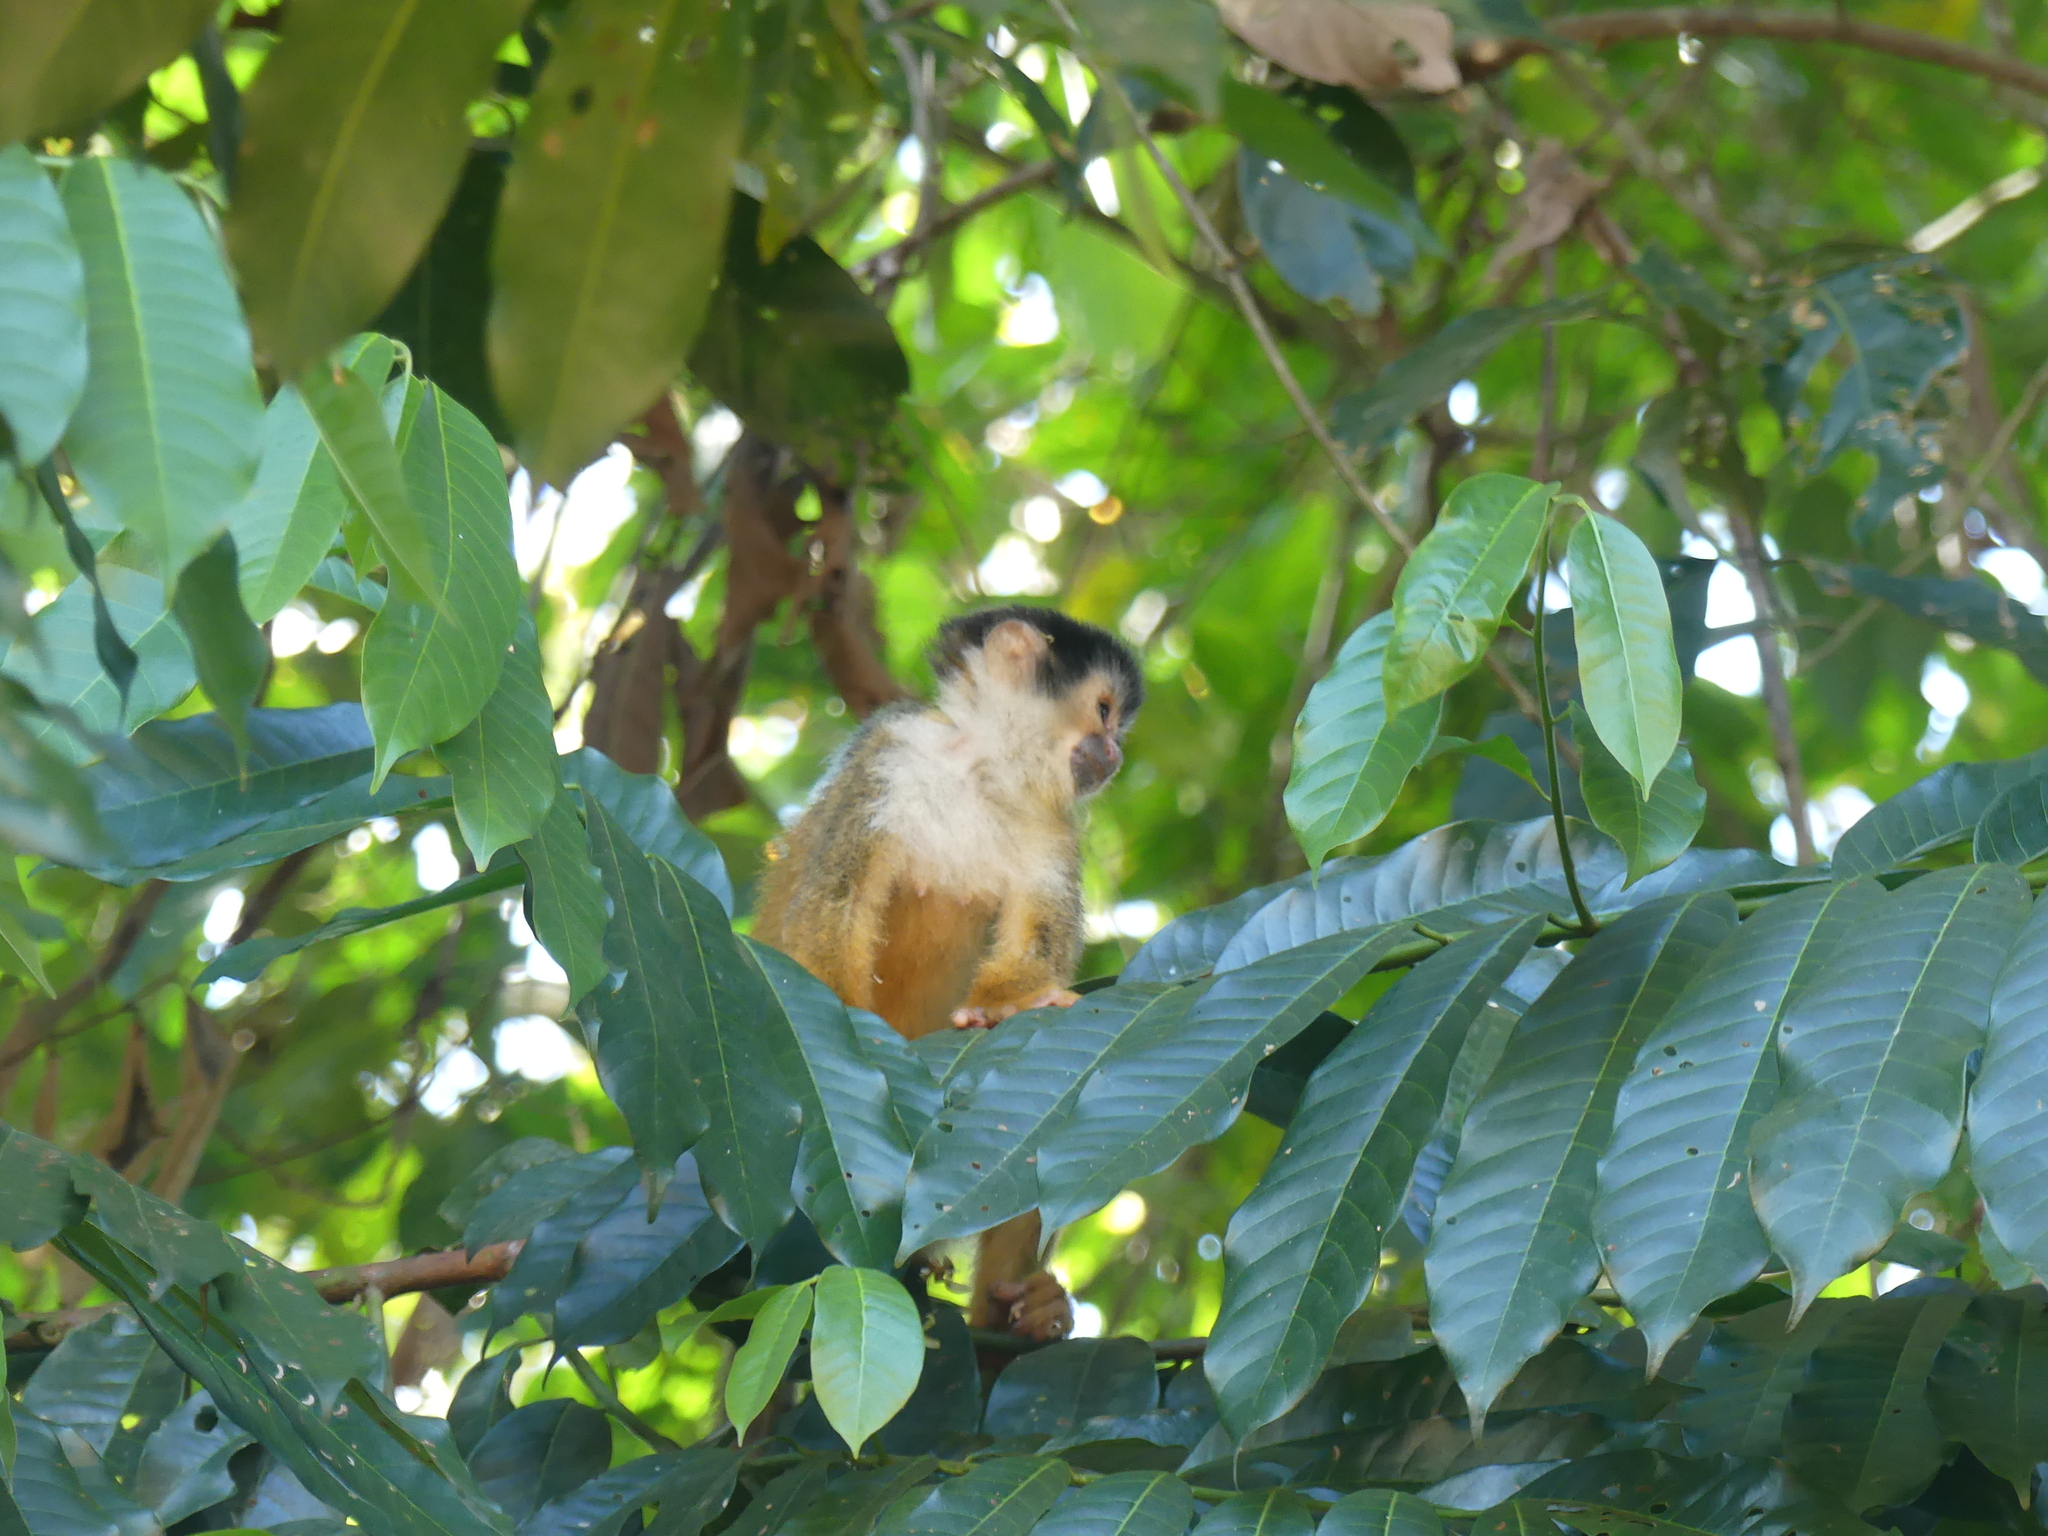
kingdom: Animalia
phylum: Chordata
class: Mammalia
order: Primates
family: Cebidae
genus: Saimiri
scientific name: Saimiri oerstedii
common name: Central american squirrel monkey
